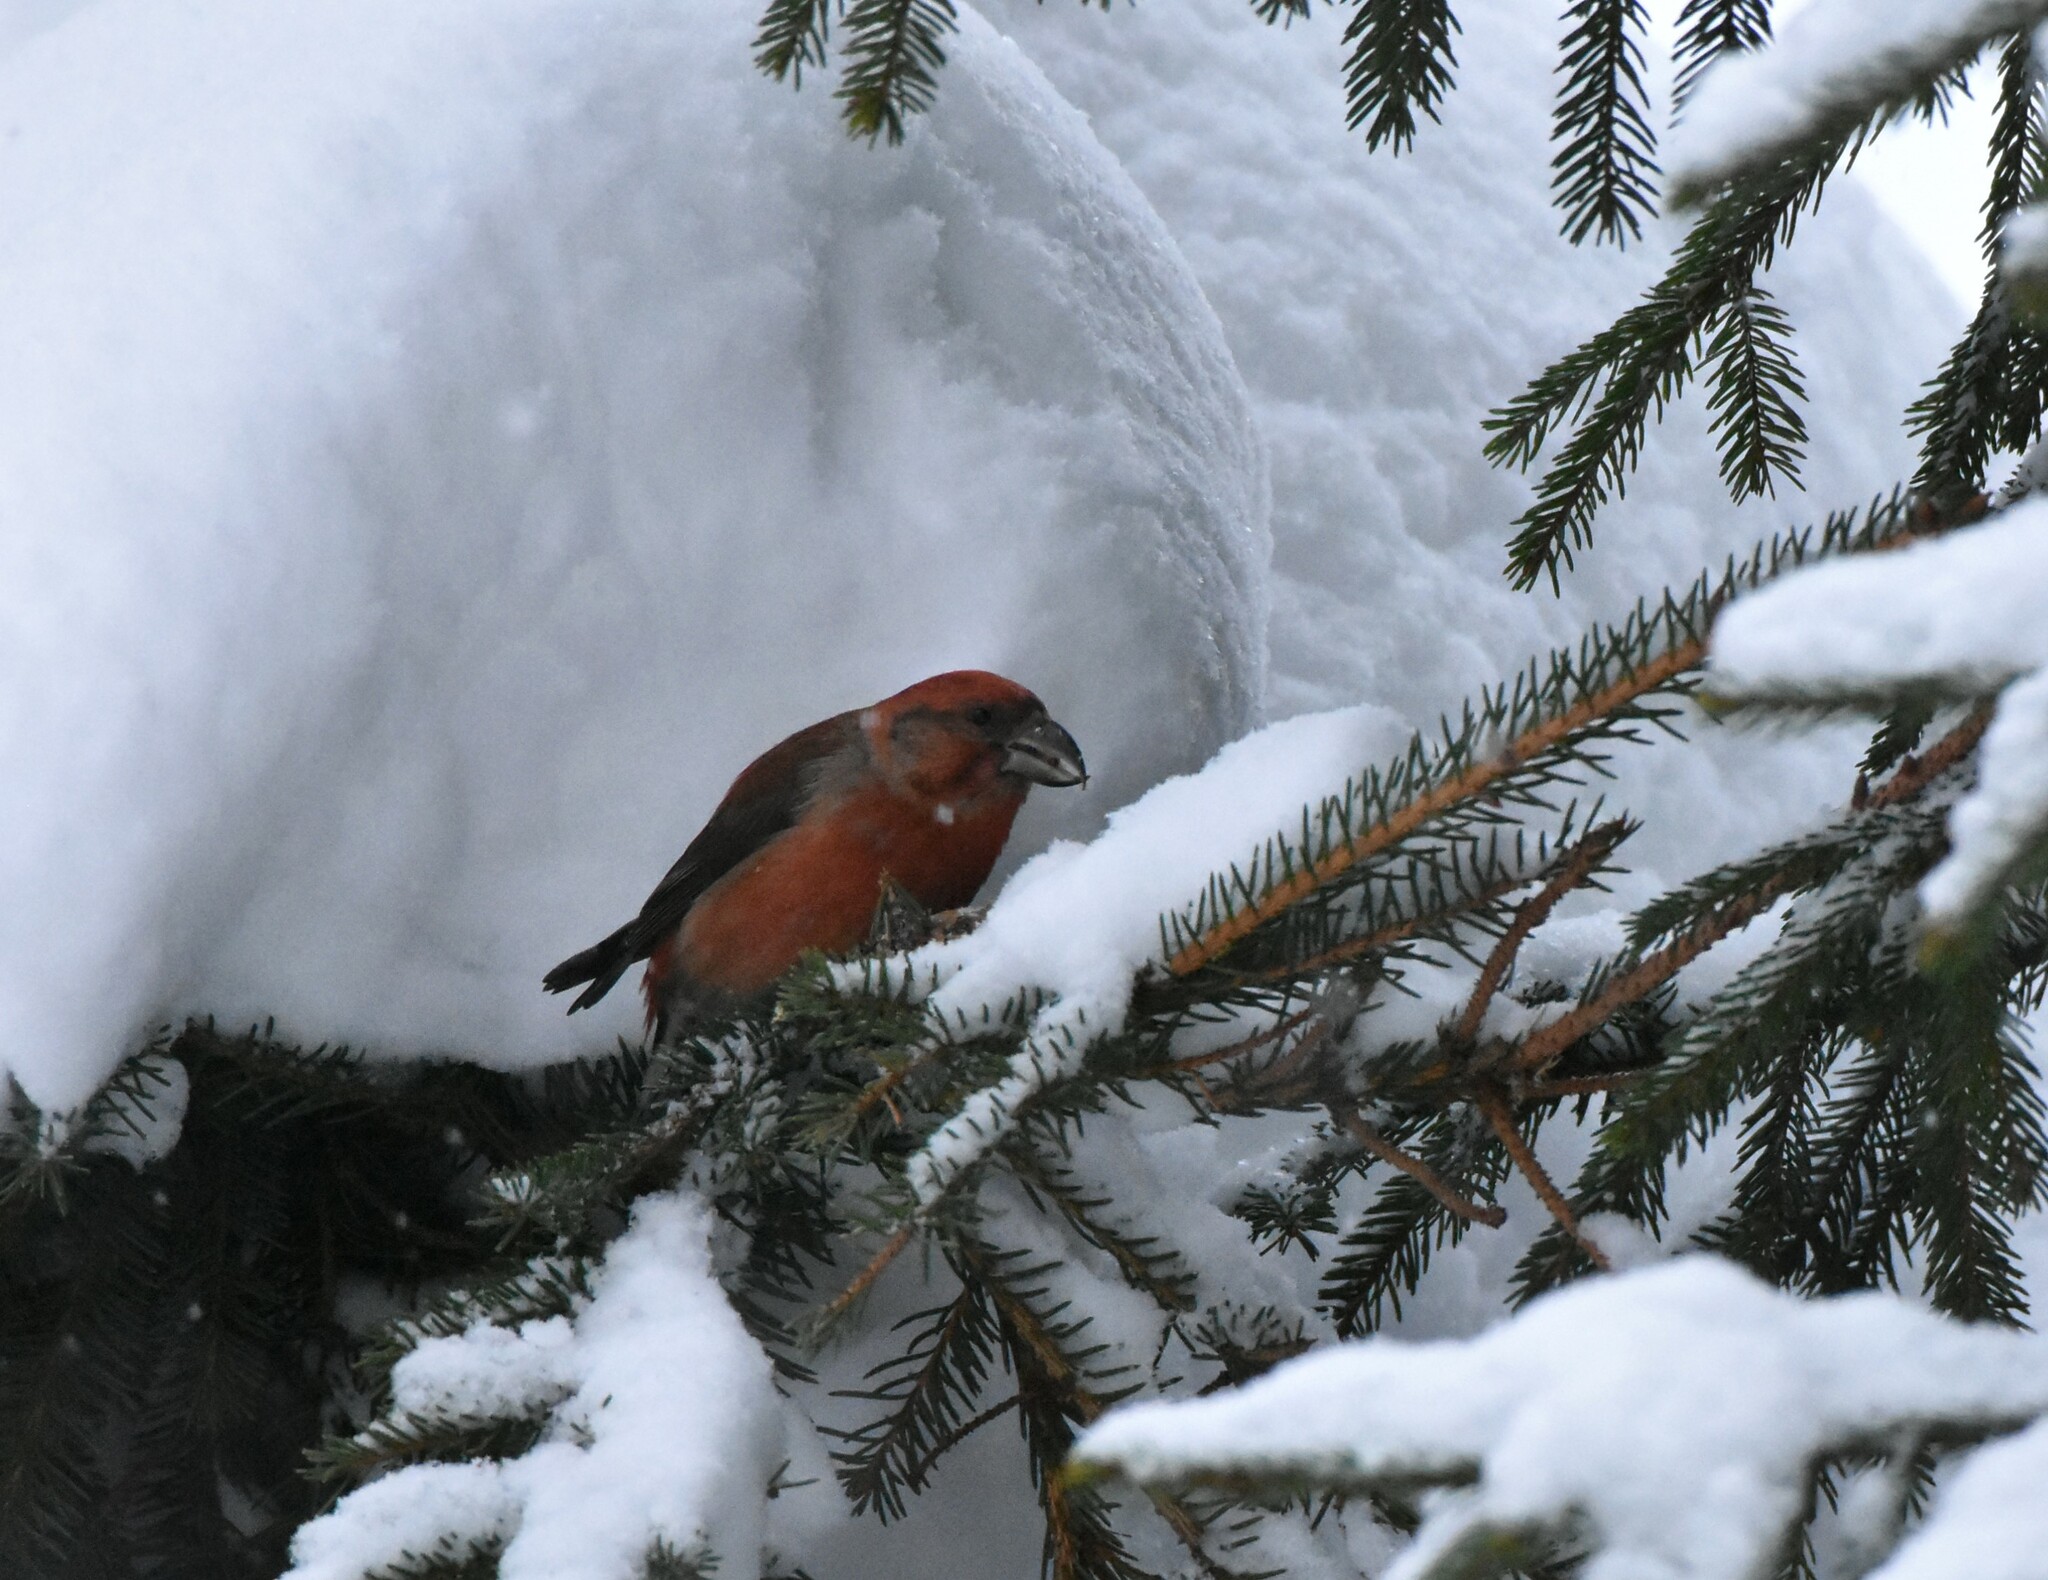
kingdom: Animalia
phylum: Chordata
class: Aves
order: Passeriformes
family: Fringillidae
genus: Loxia
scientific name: Loxia curvirostra
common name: Red crossbill
